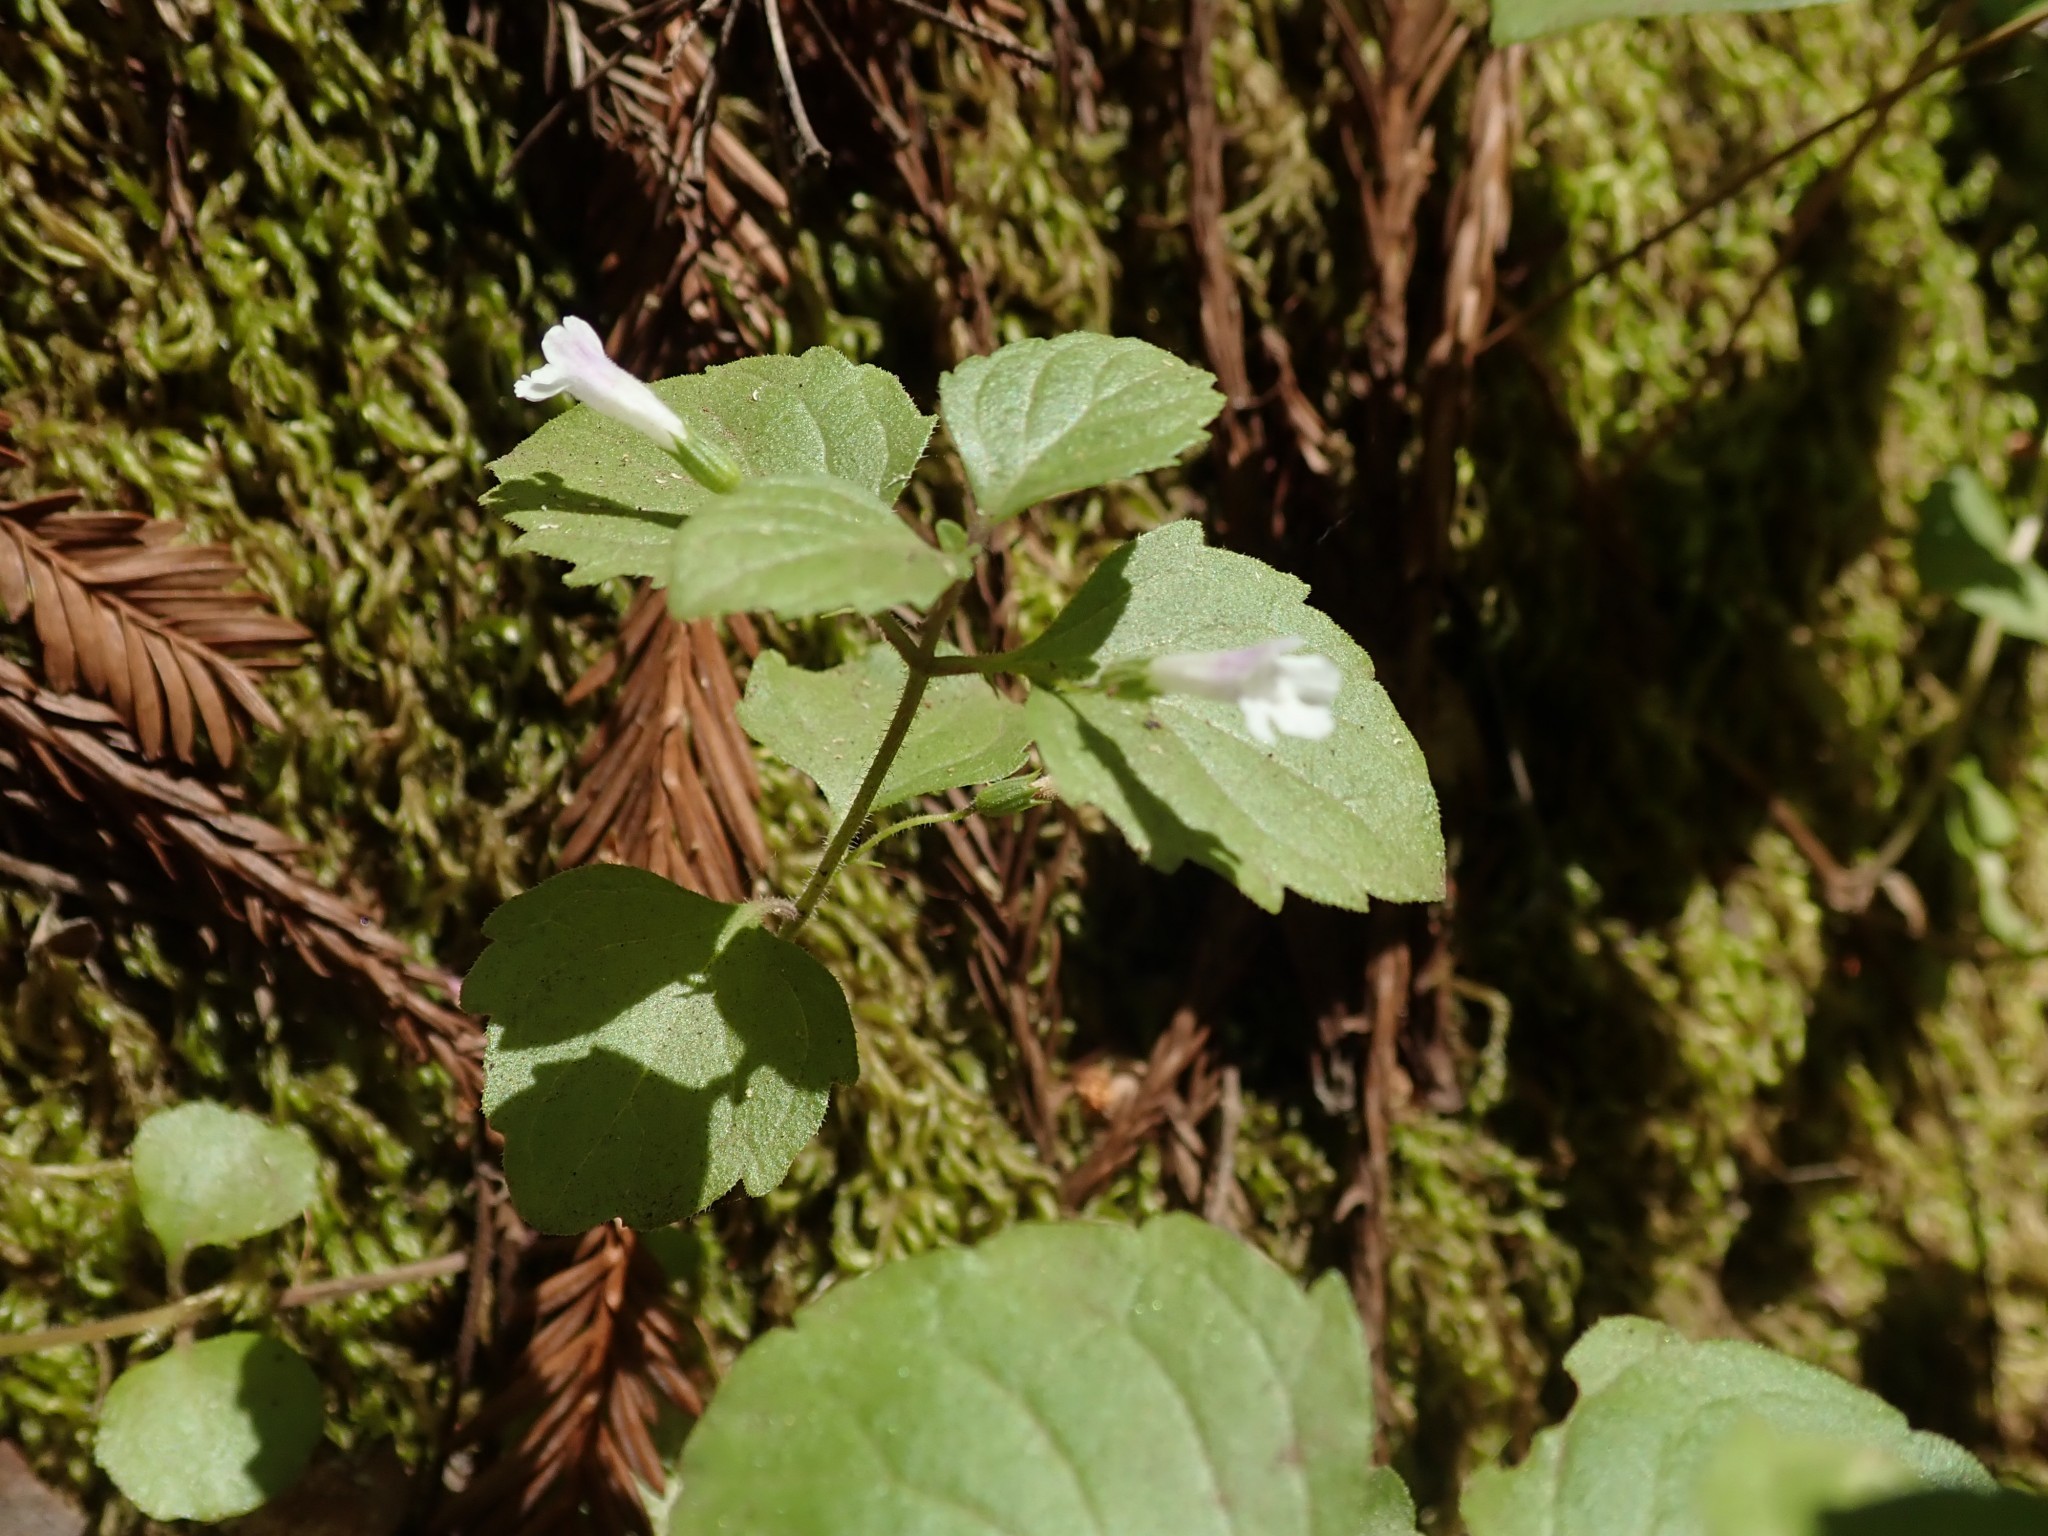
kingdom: Plantae
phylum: Tracheophyta
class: Magnoliopsida
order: Lamiales
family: Lamiaceae
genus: Micromeria
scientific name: Micromeria douglasii
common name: Yerba buena
